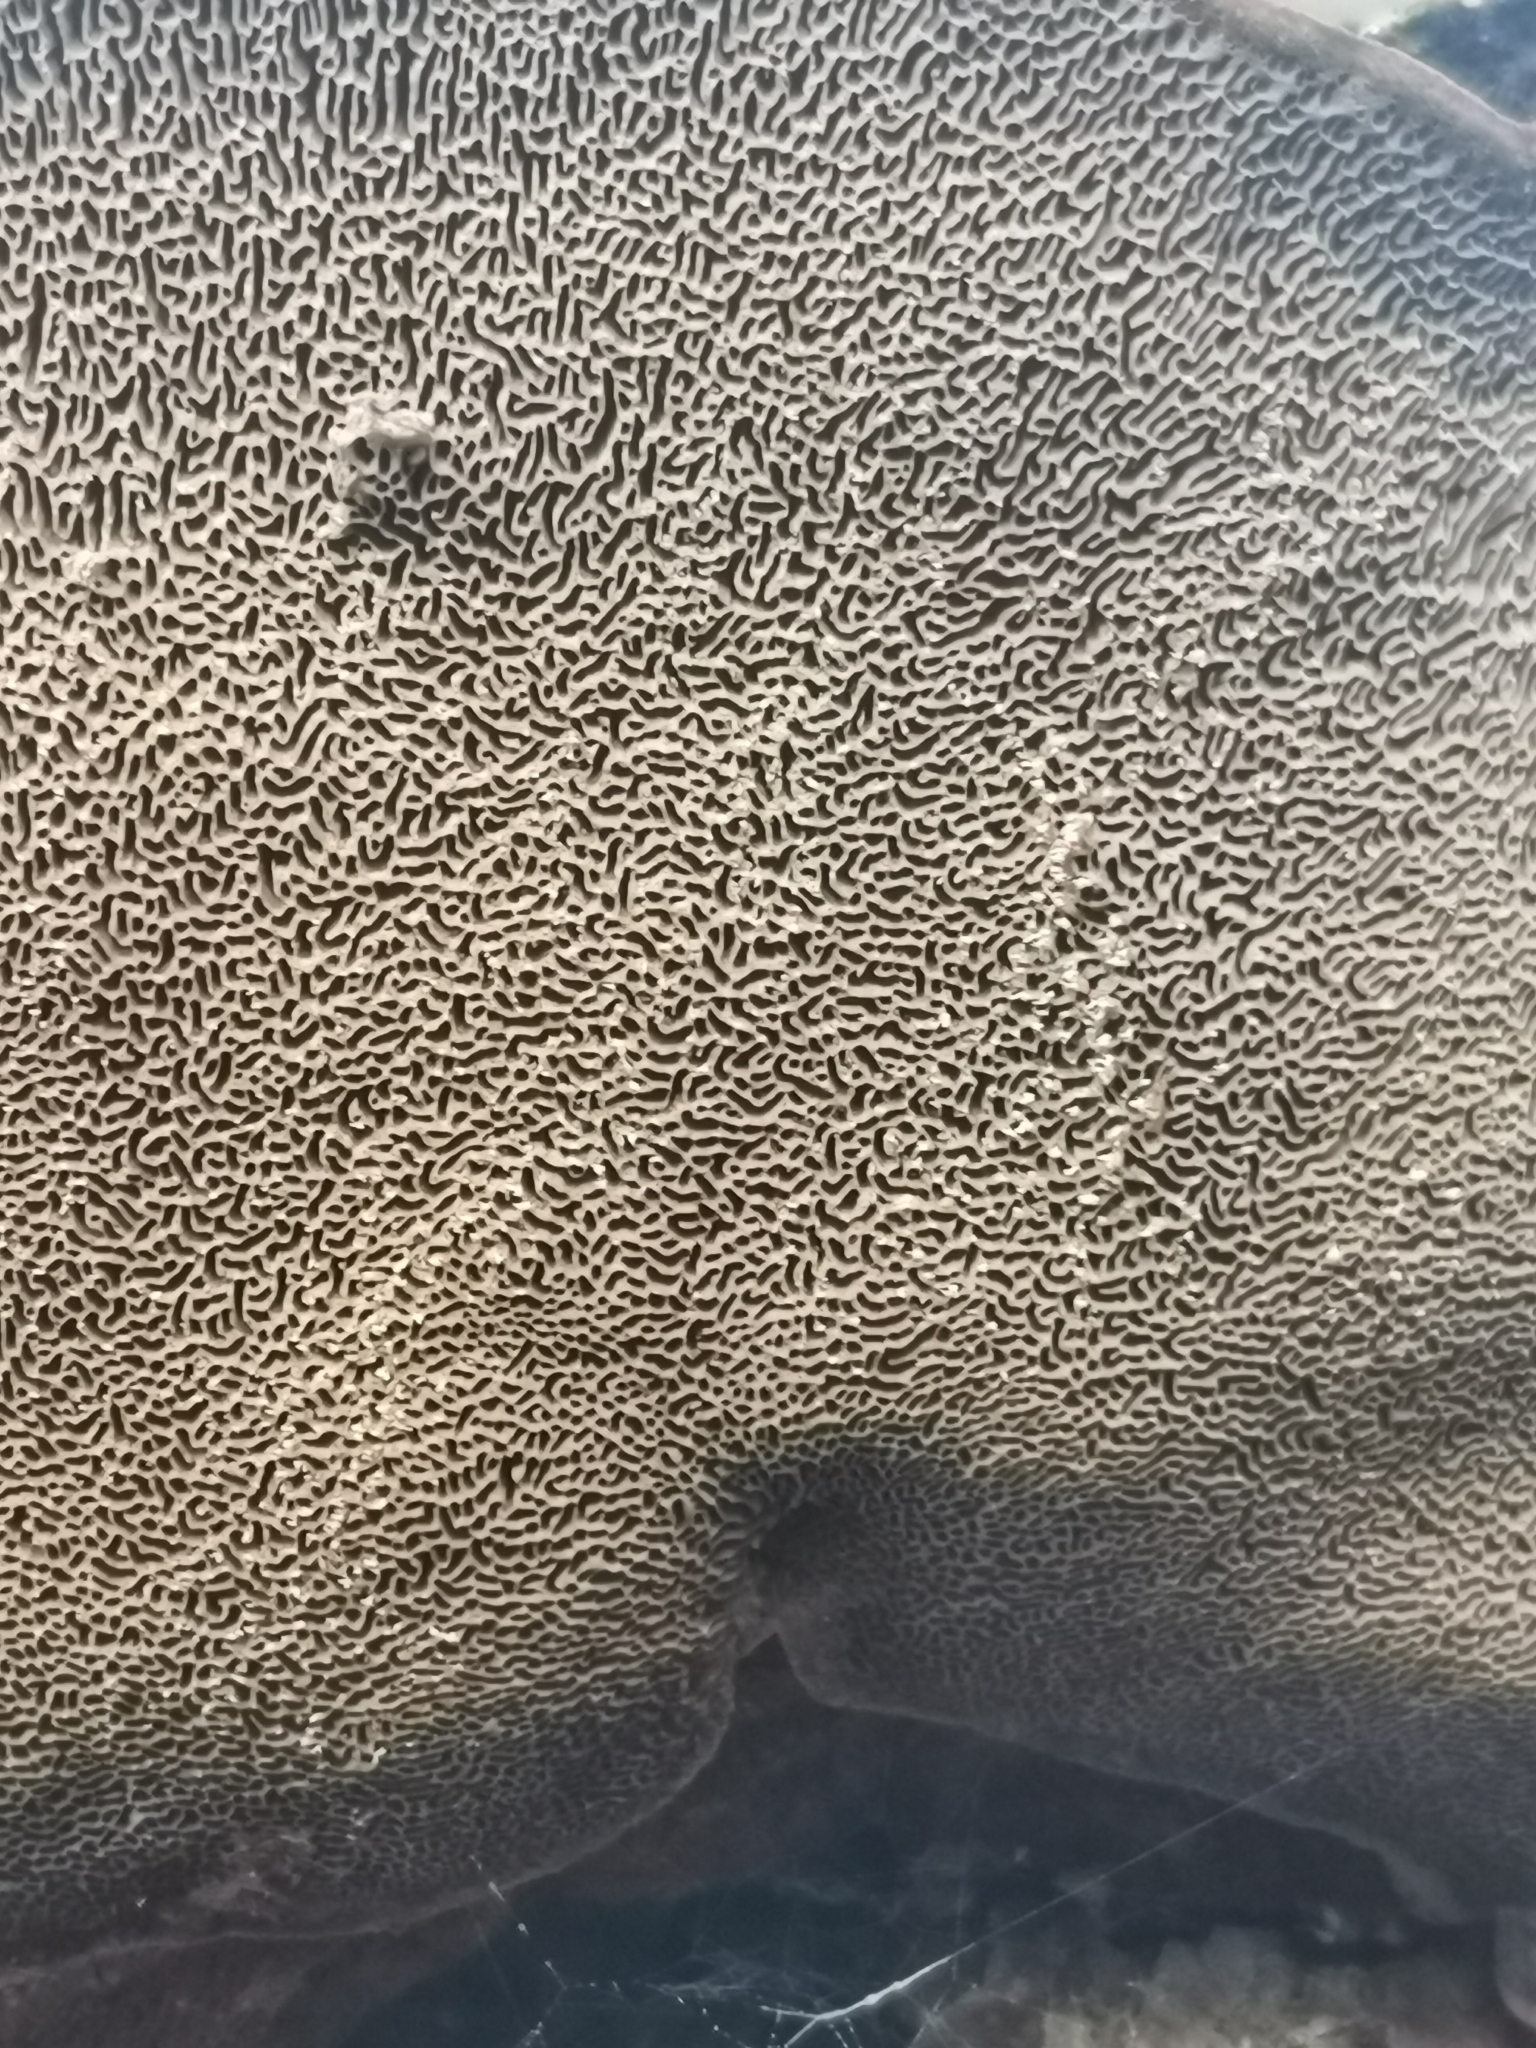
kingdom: Fungi
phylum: Basidiomycota
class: Agaricomycetes
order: Hymenochaetales
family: Hymenochaetaceae
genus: Porodaedalea
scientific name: Porodaedalea pini
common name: Pine bracket
